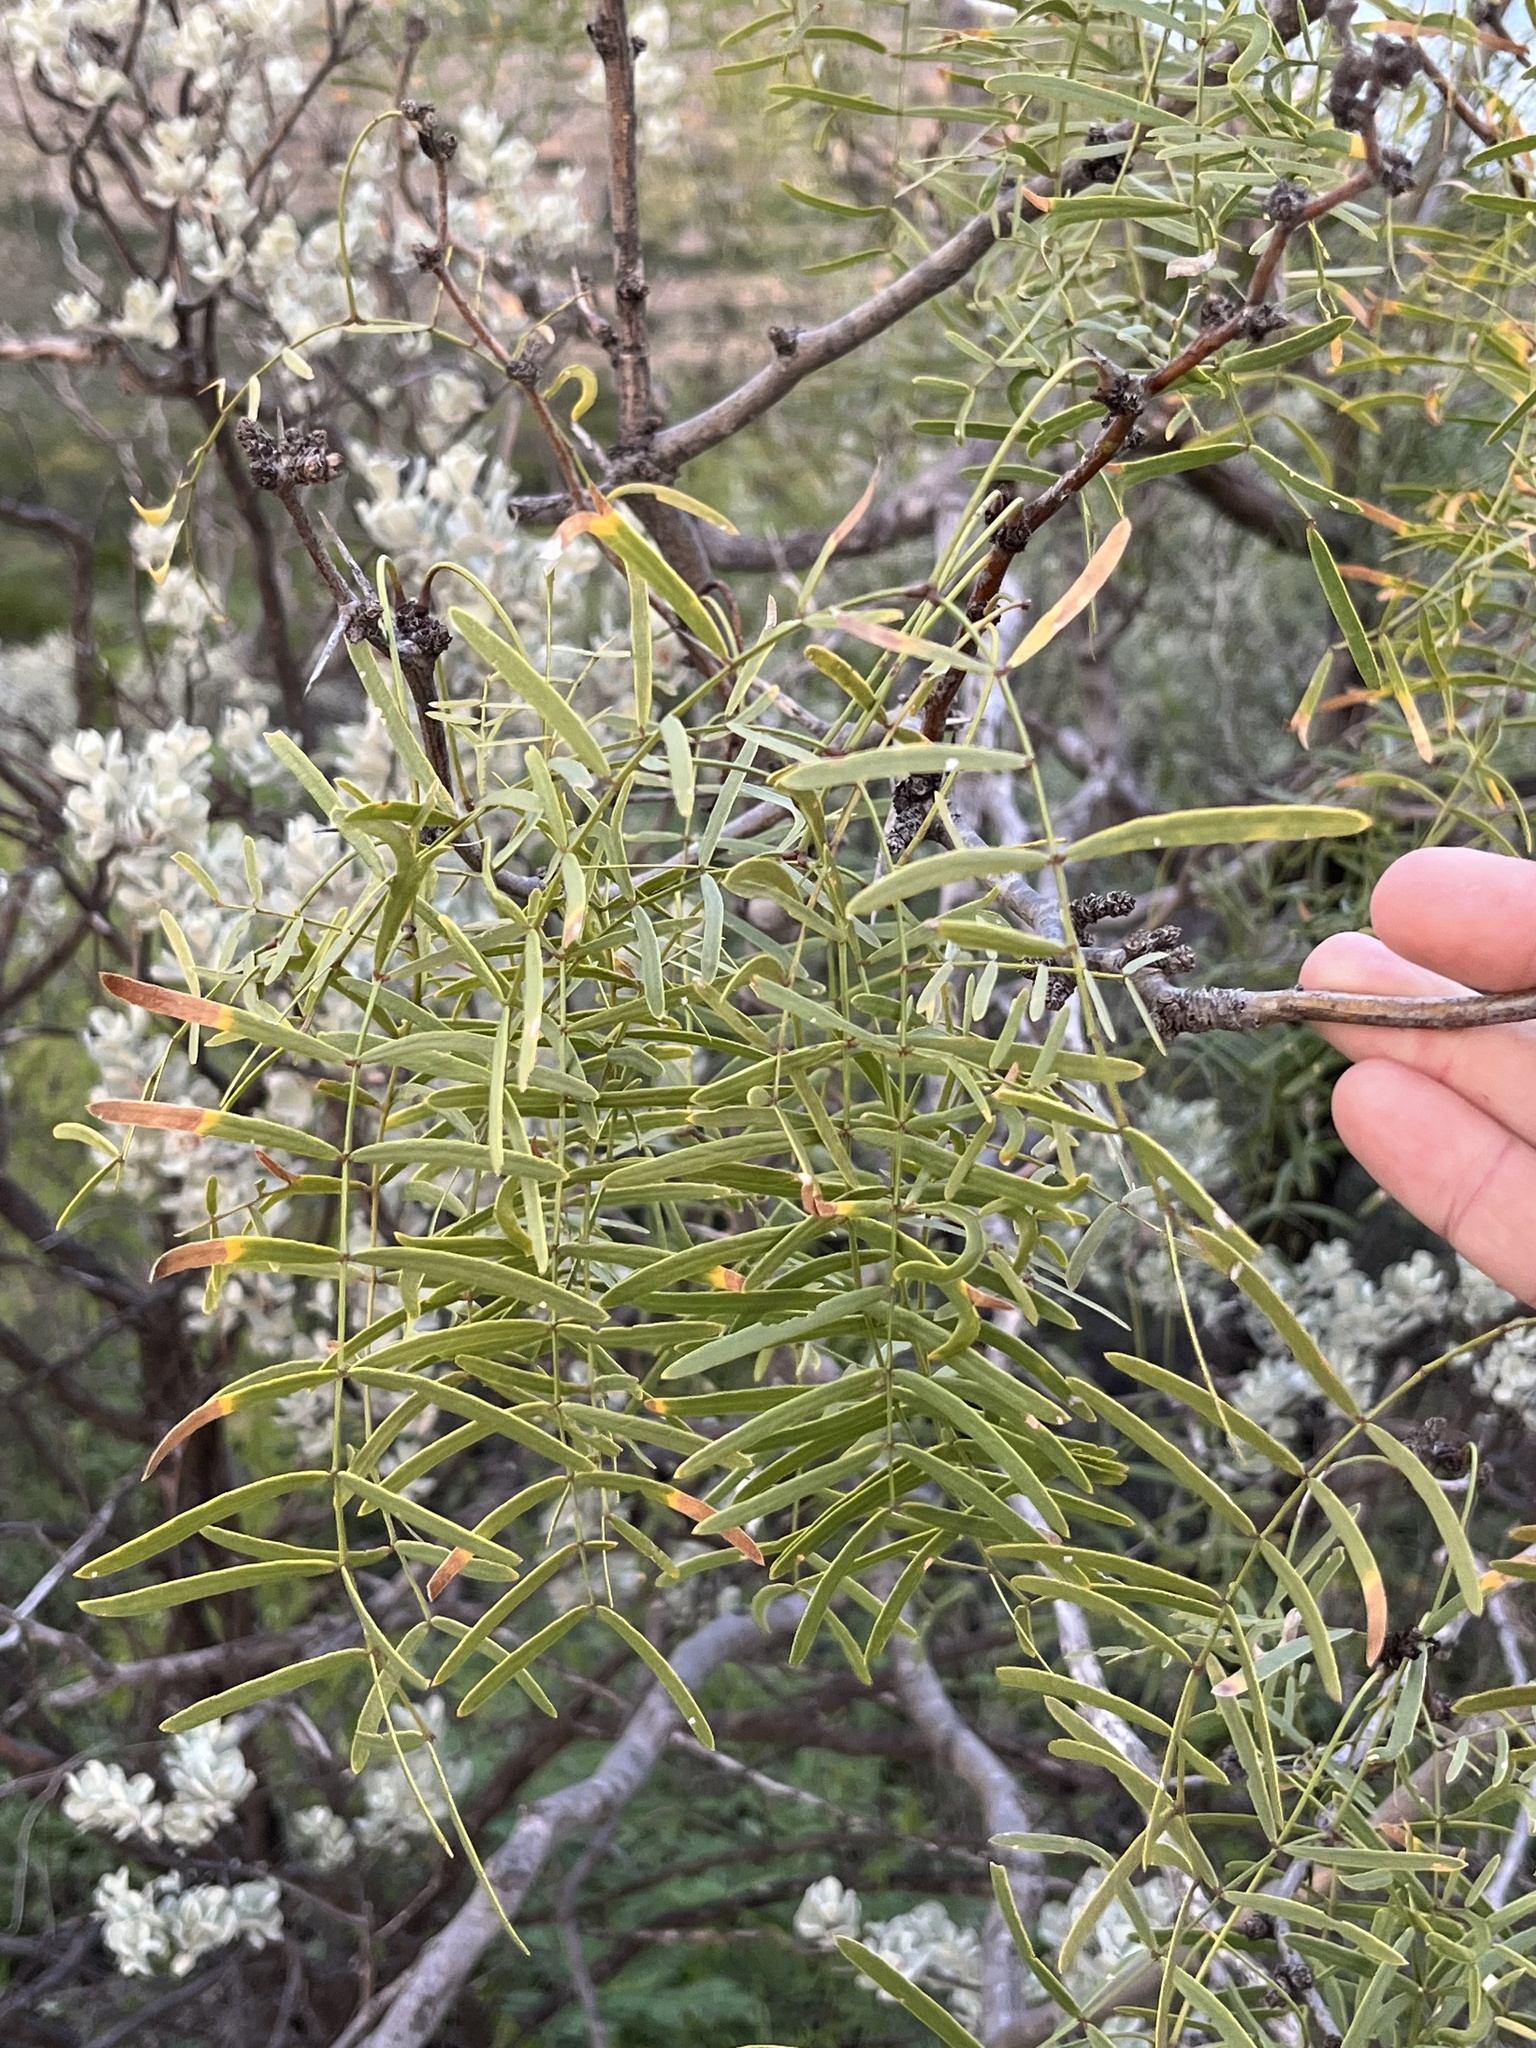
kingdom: Plantae
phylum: Tracheophyta
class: Magnoliopsida
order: Fabales
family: Fabaceae
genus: Prosopis
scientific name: Prosopis glandulosa
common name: Honey mesquite
